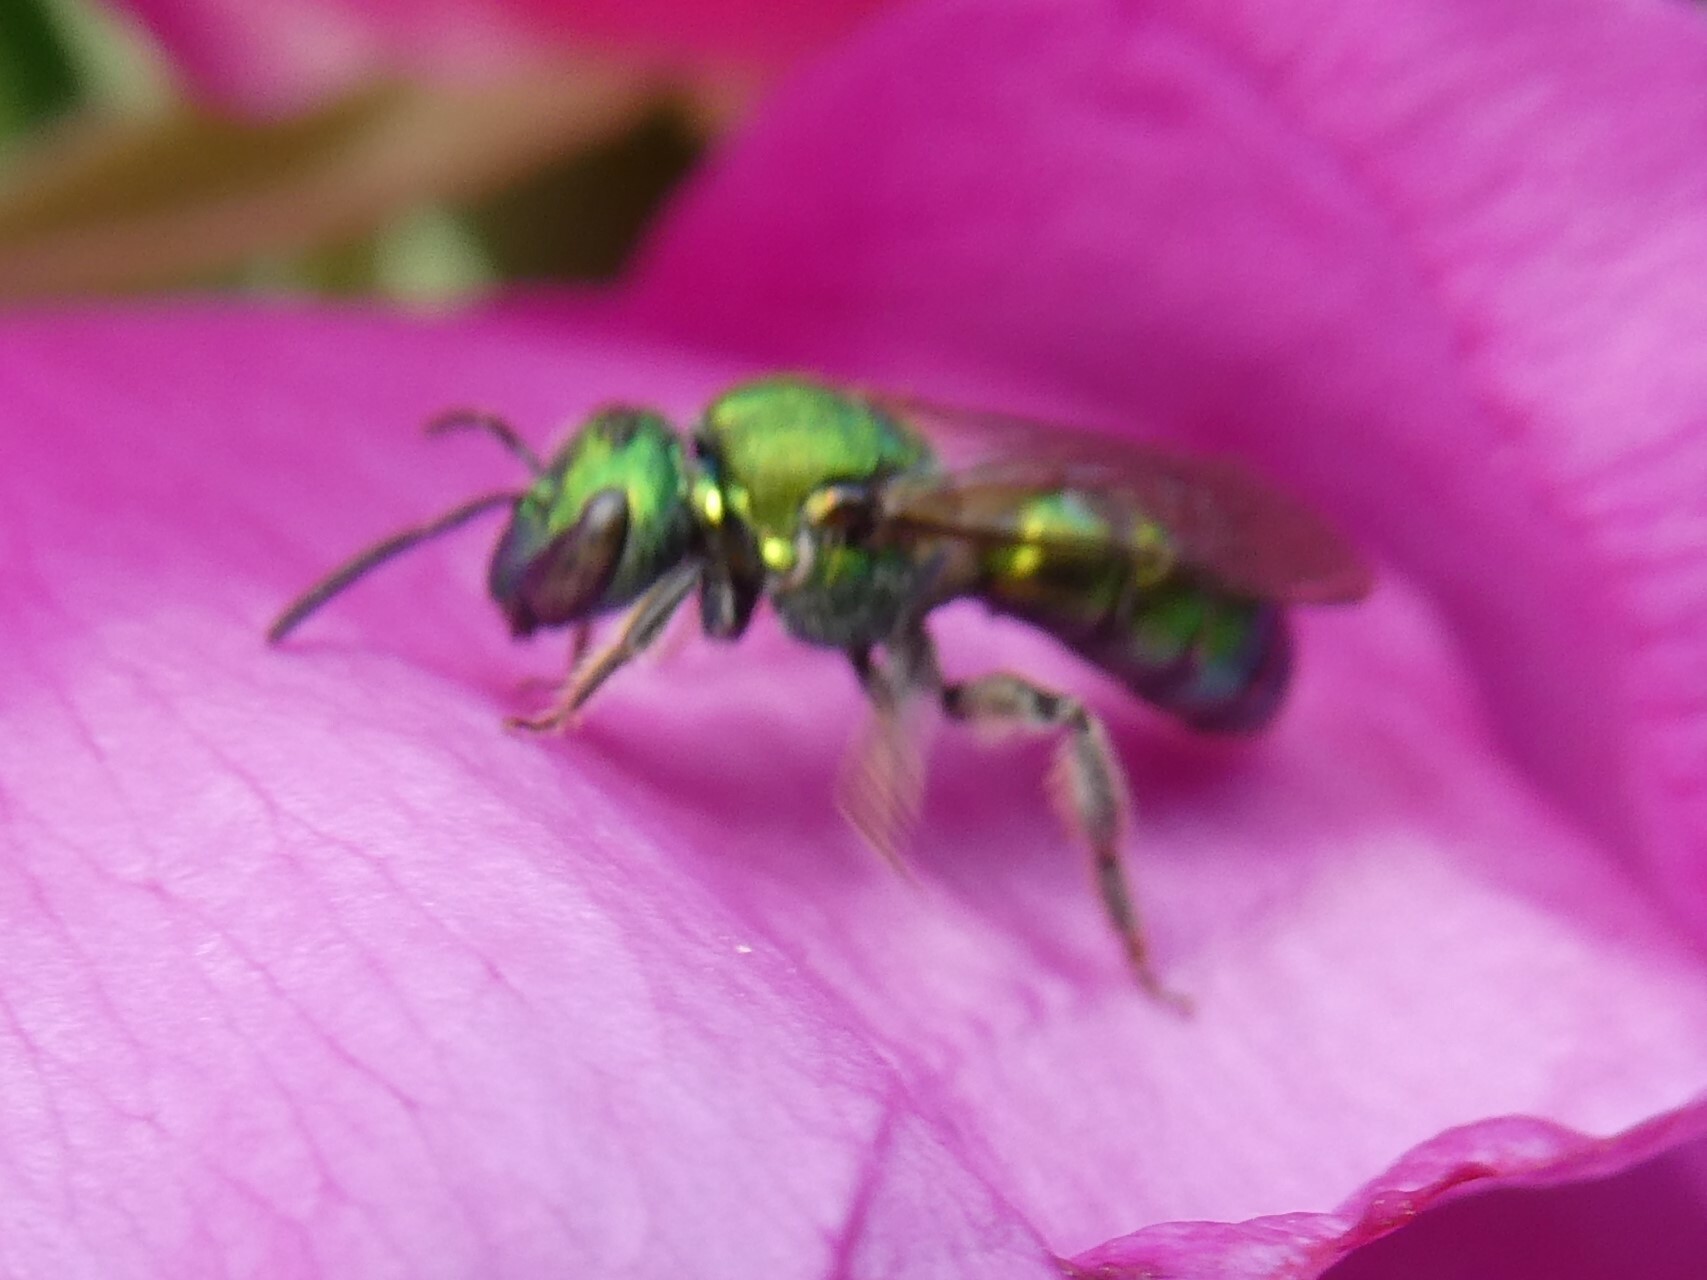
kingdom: Animalia
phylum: Arthropoda
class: Insecta
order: Hymenoptera
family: Halictidae
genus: Augochlora
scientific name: Augochlora pura
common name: Pure green sweat bee
